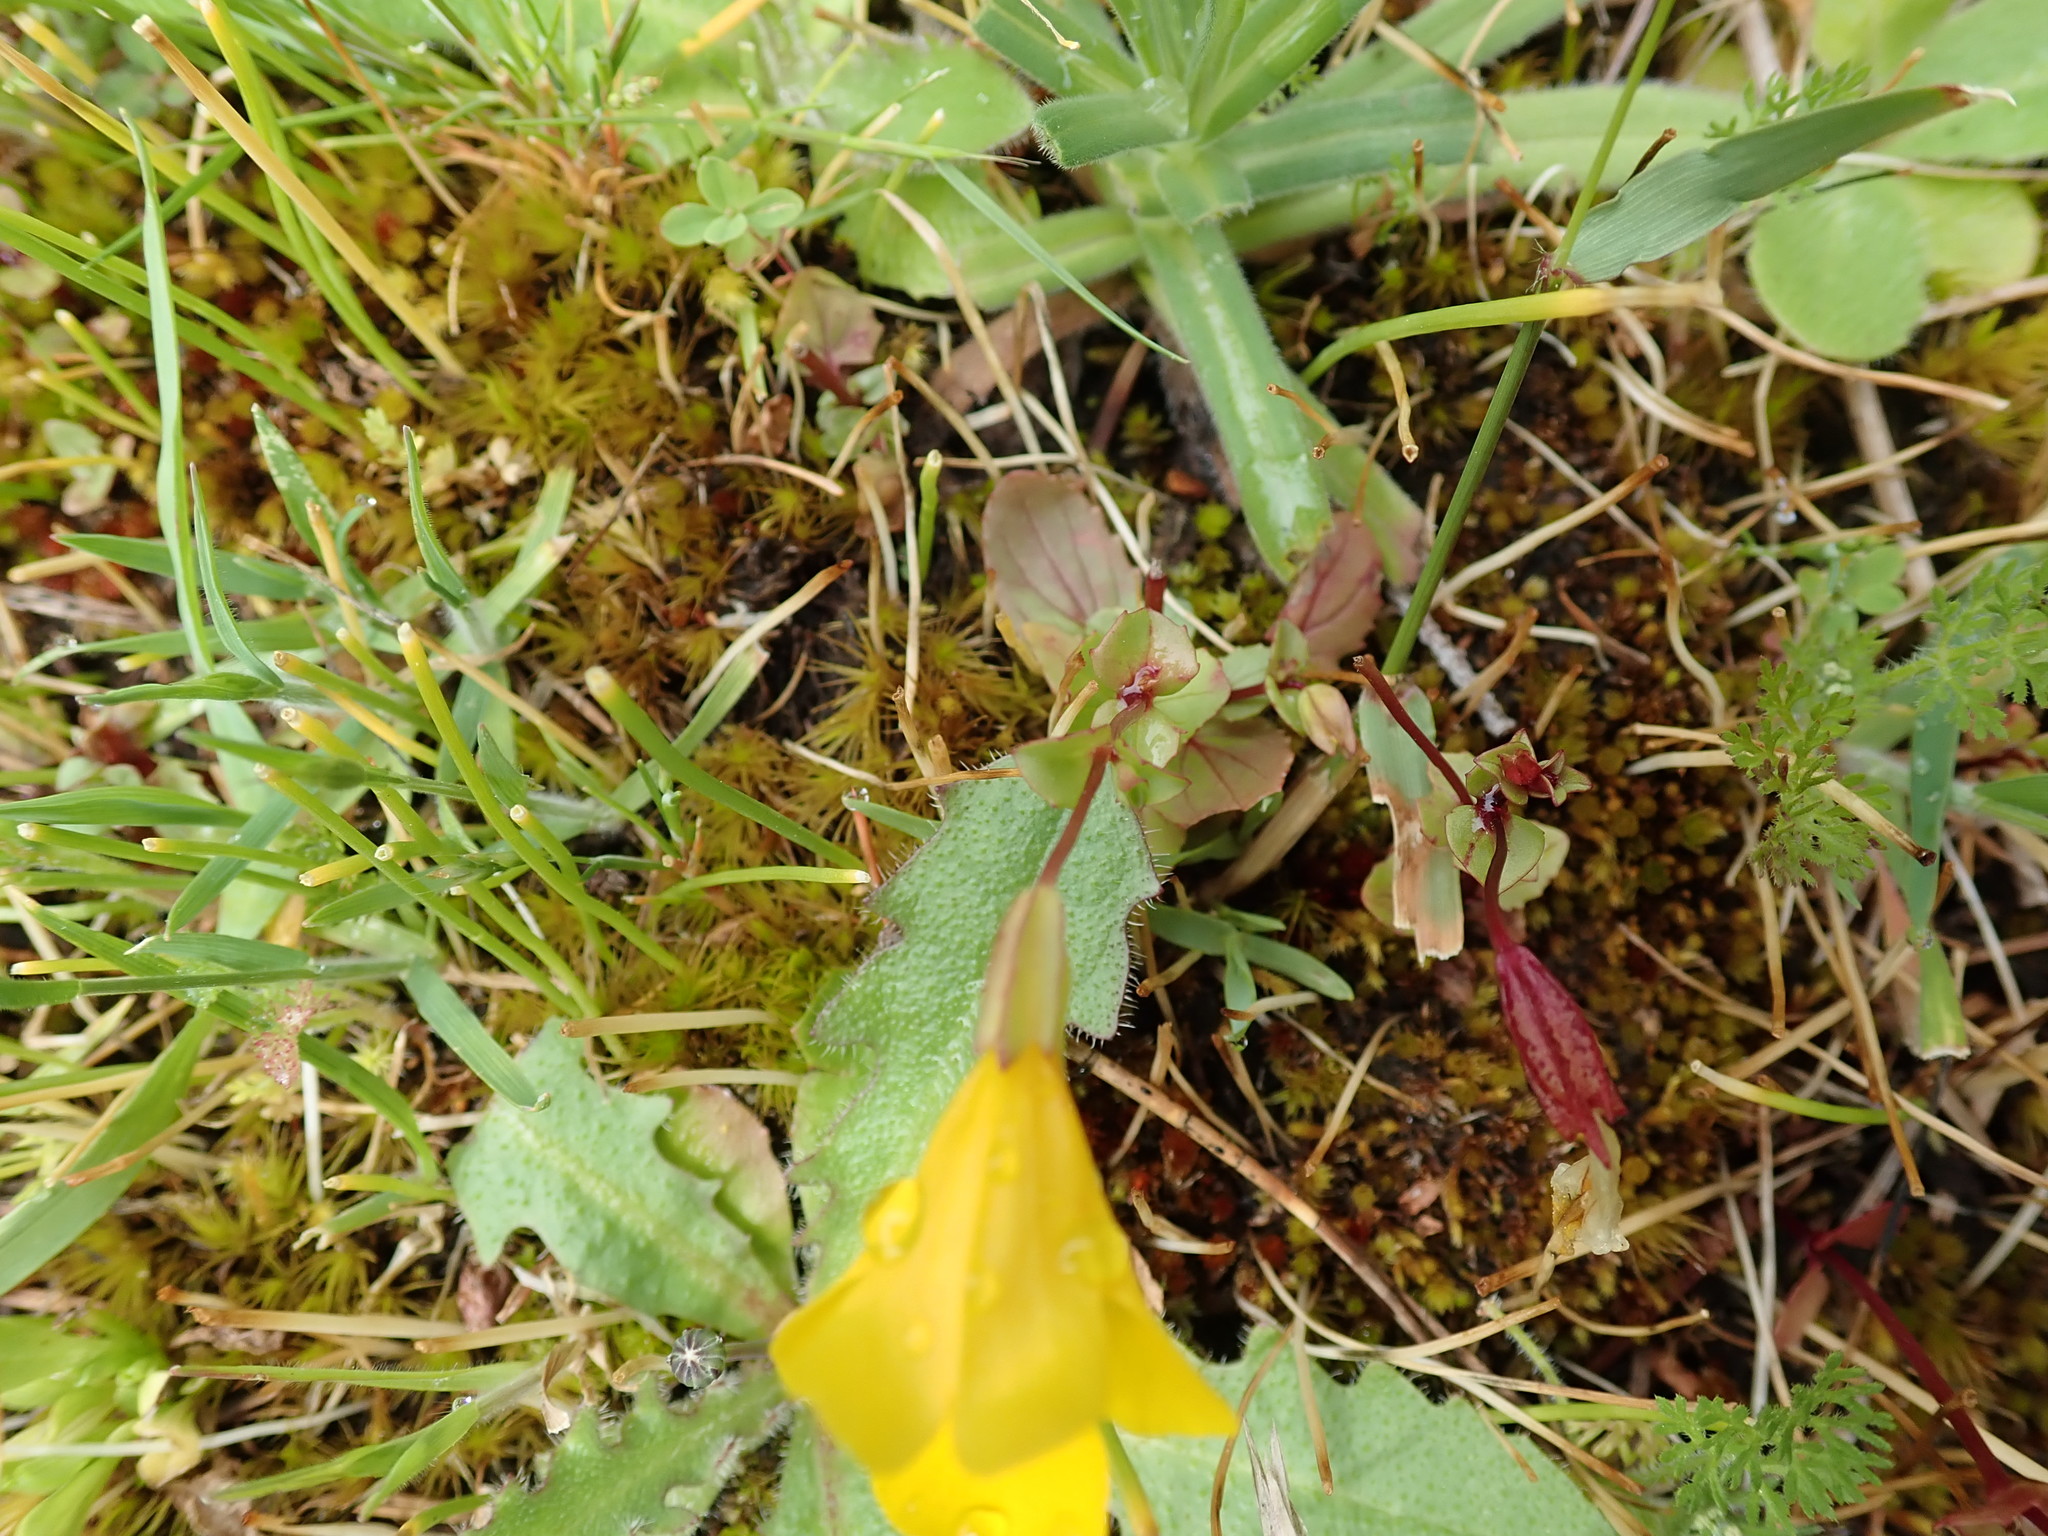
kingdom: Plantae
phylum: Tracheophyta
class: Magnoliopsida
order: Lamiales
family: Phrymaceae
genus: Erythranthe
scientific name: Erythranthe guttata
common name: Monkeyflower
